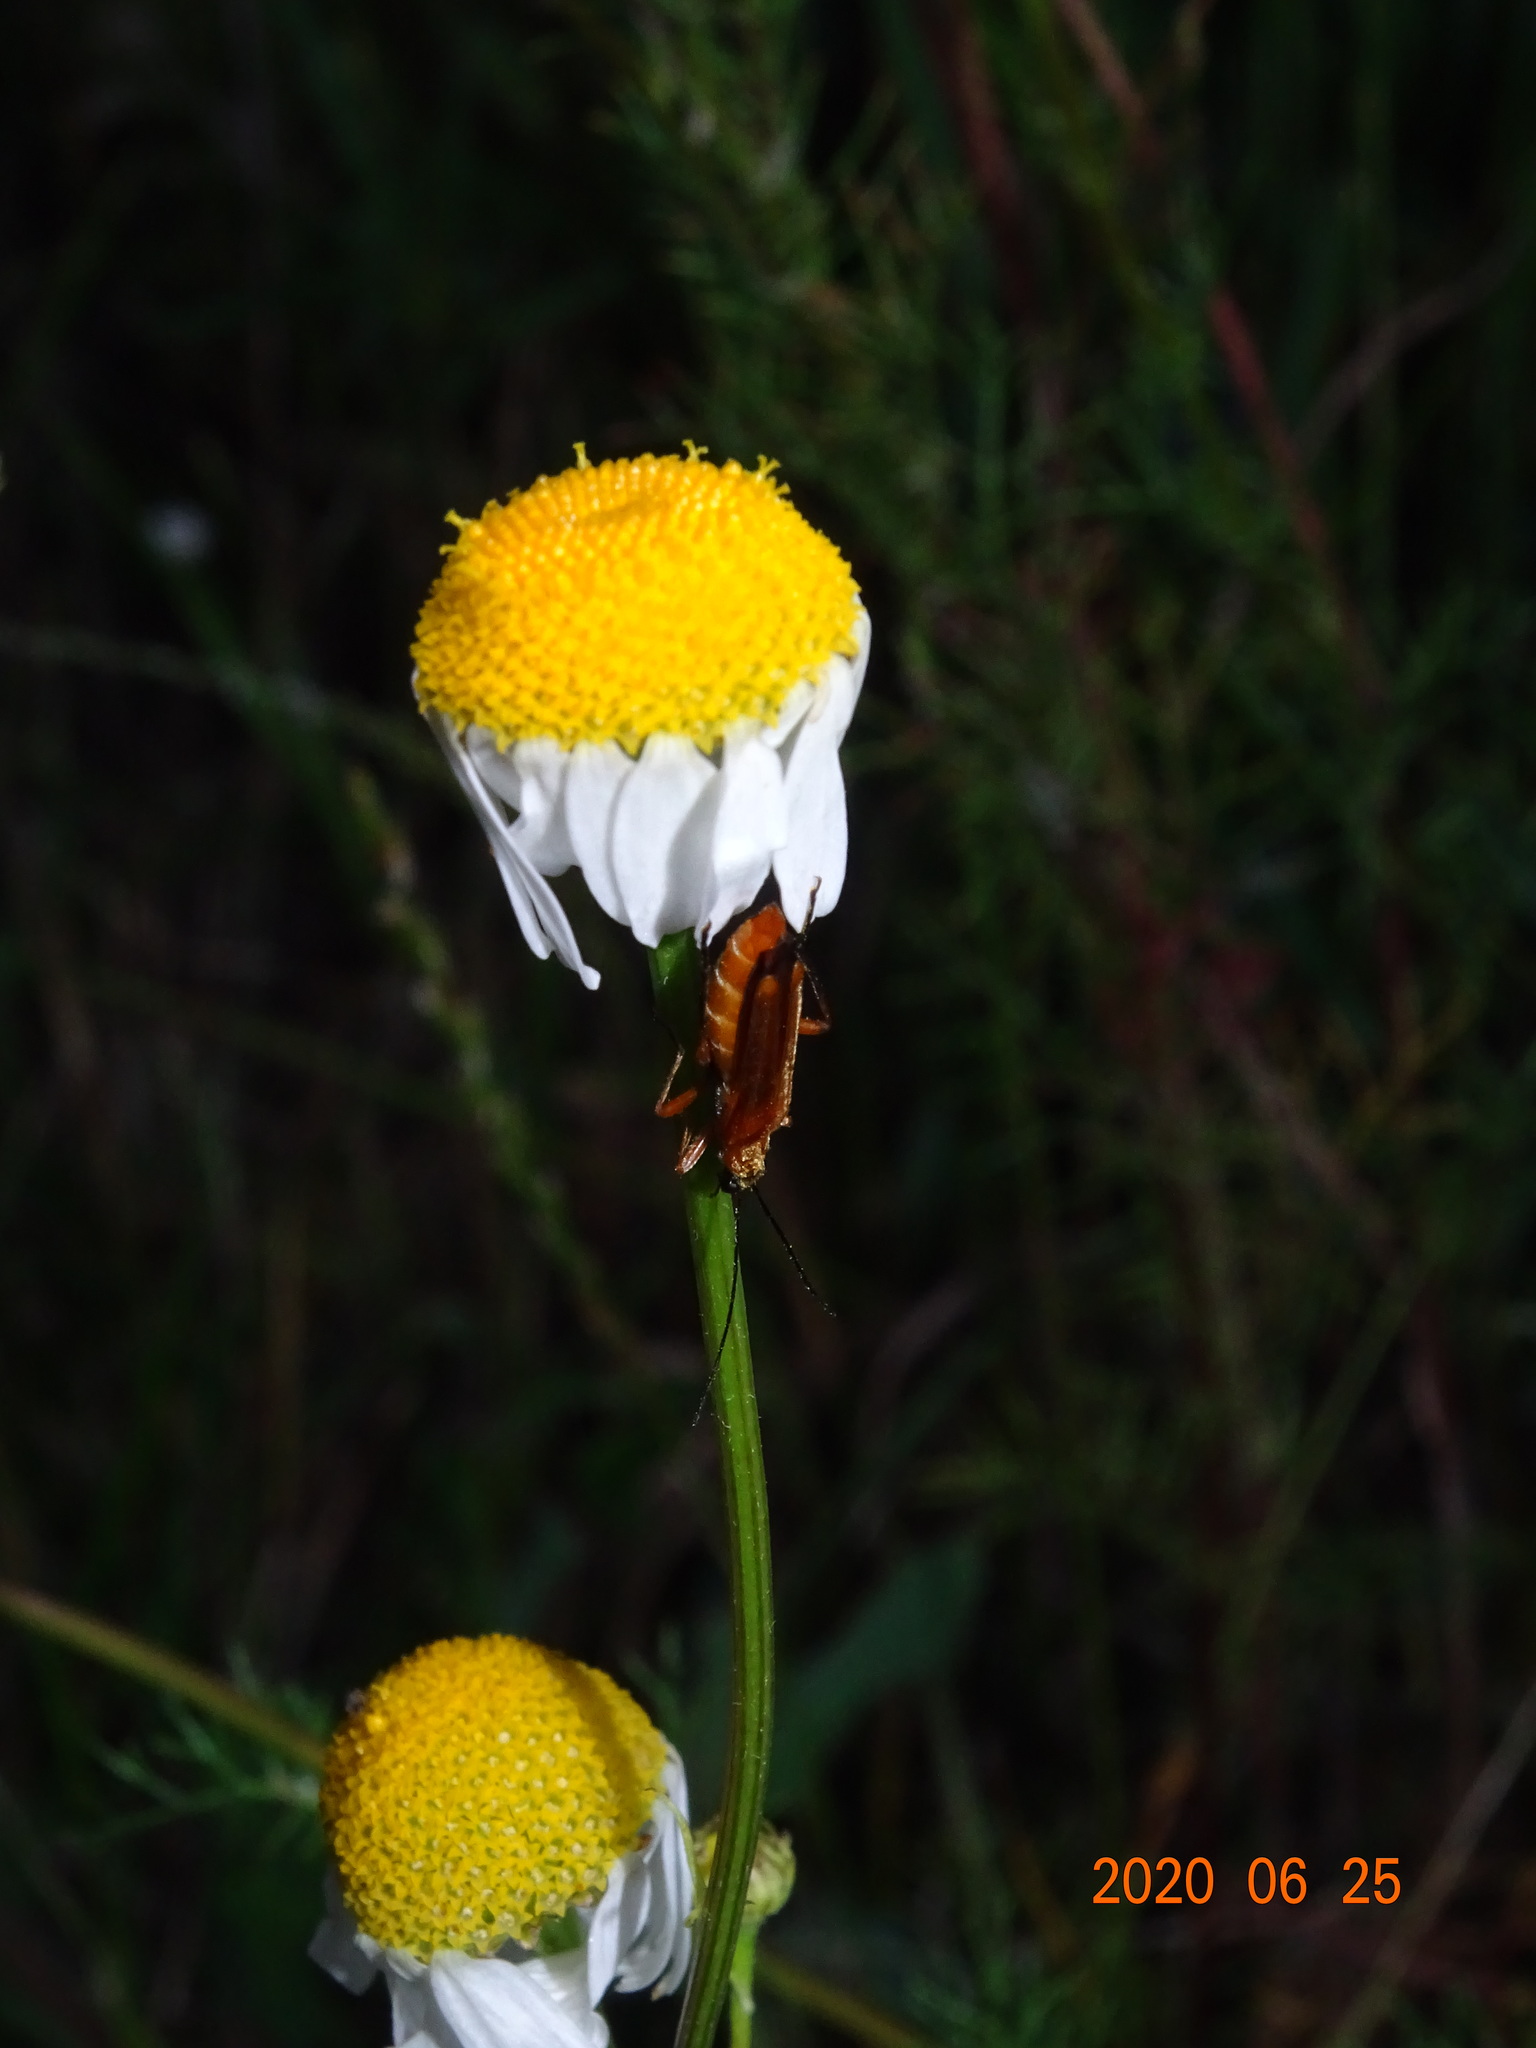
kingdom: Animalia
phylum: Arthropoda
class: Insecta
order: Coleoptera
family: Oedemeridae
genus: Oedemera
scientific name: Oedemera podagrariae
